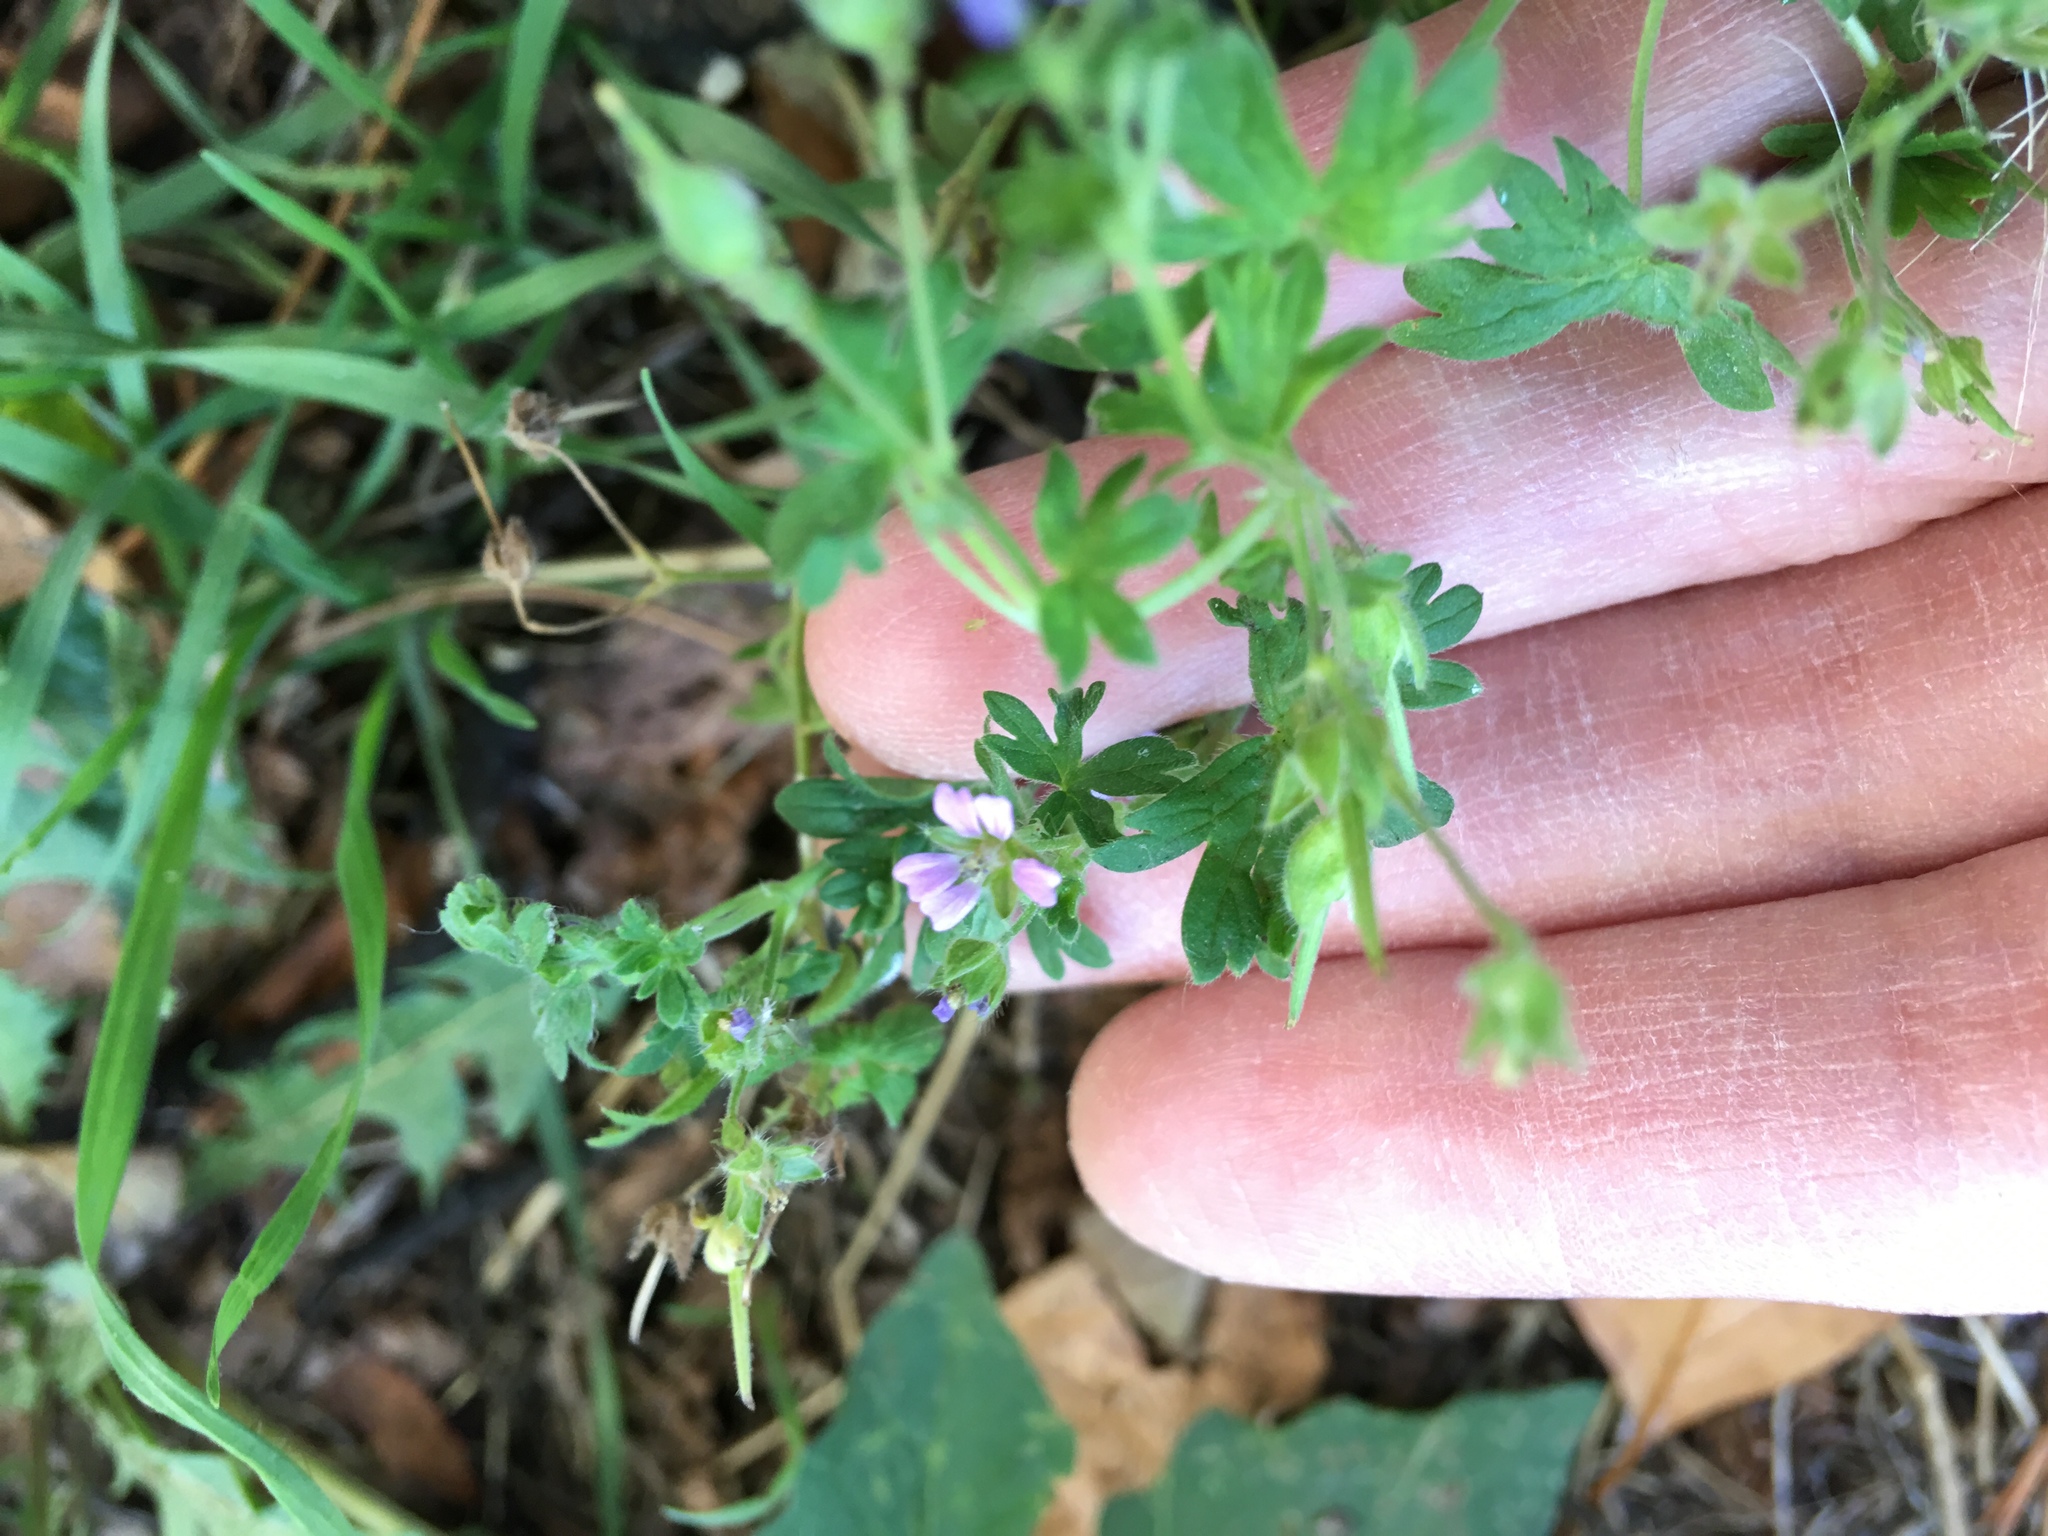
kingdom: Plantae
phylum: Tracheophyta
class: Magnoliopsida
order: Geraniales
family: Geraniaceae
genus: Geranium
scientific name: Geranium pusillum
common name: Small geranium
